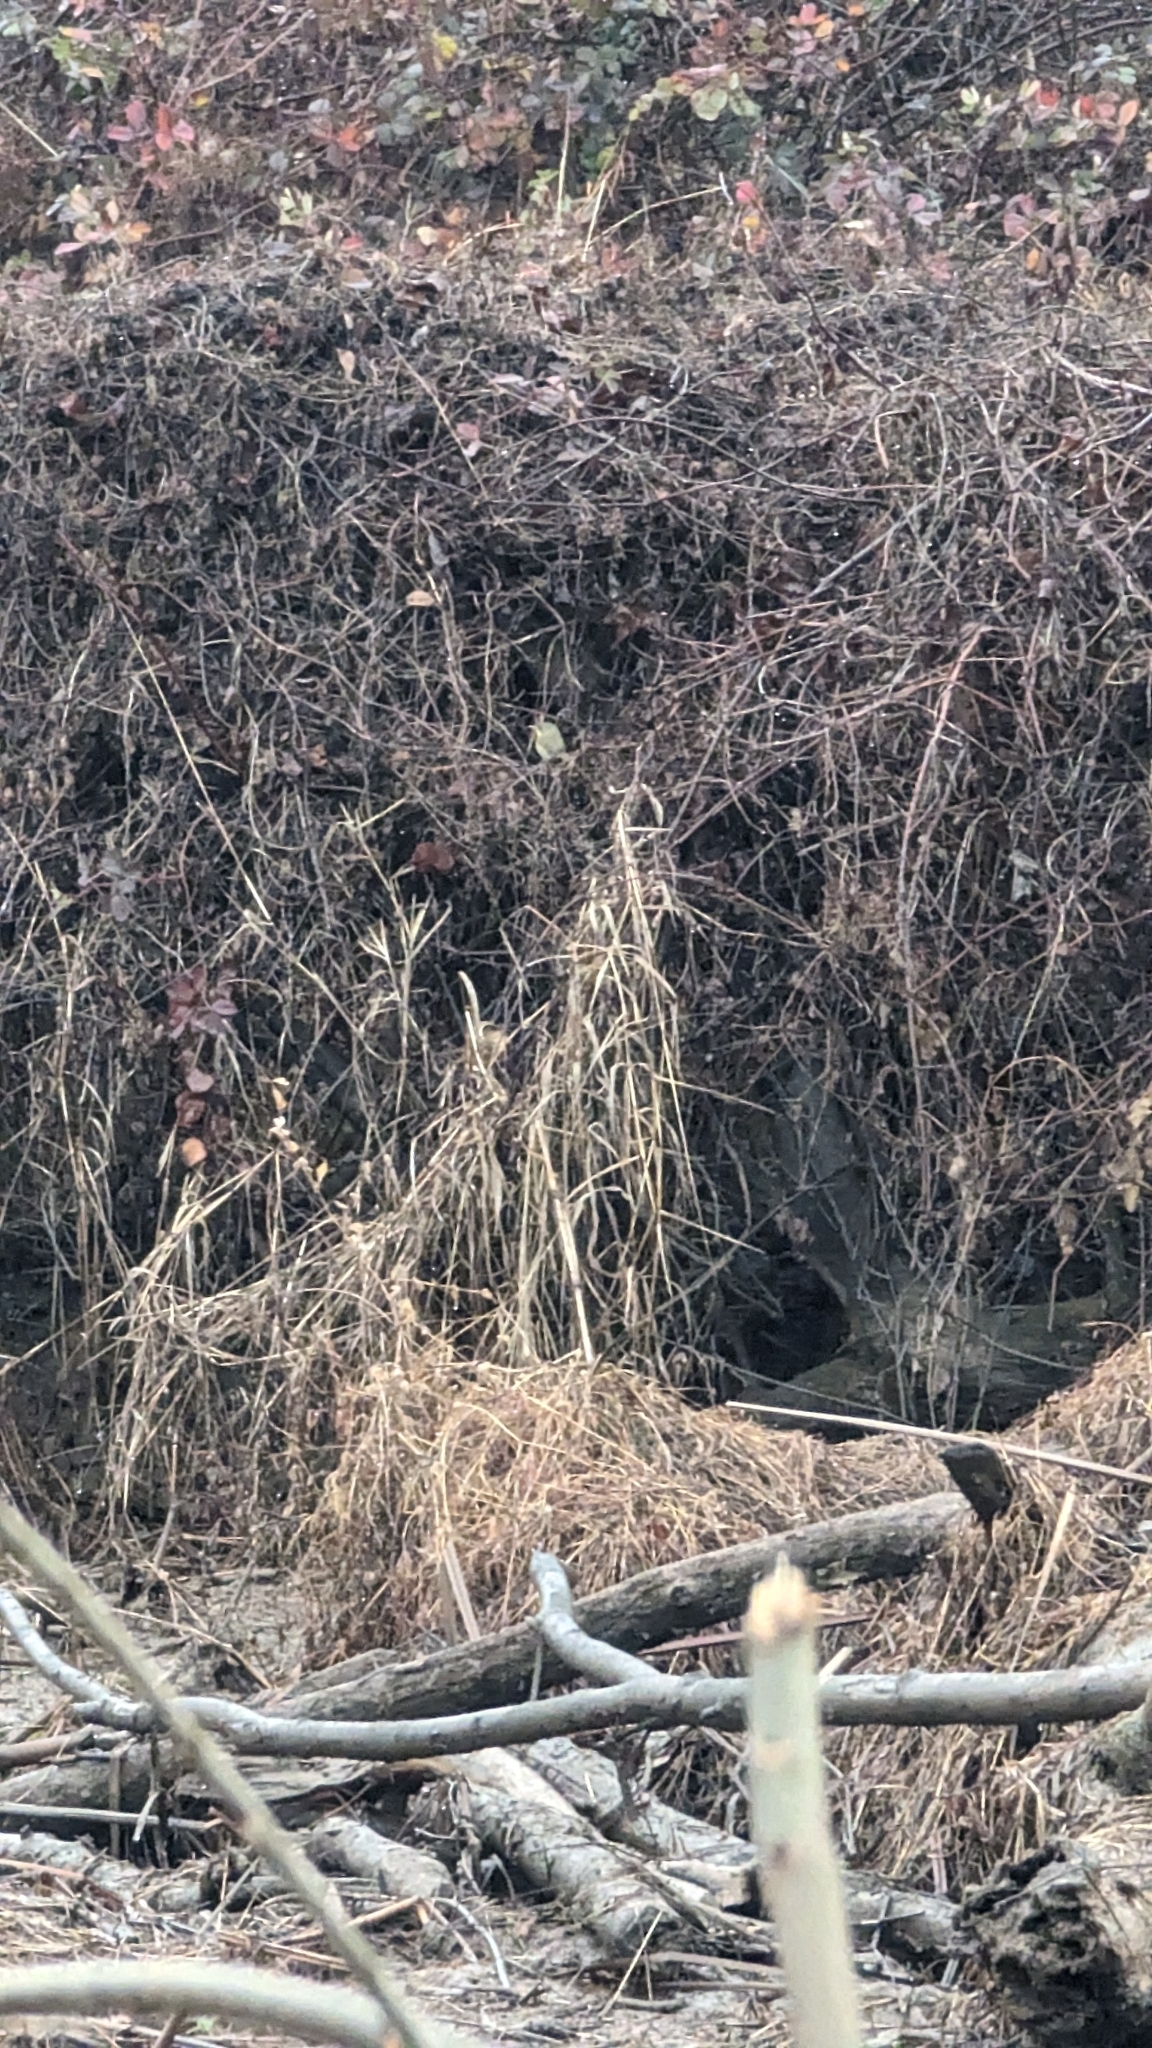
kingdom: Animalia
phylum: Chordata
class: Aves
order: Passeriformes
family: Parulidae
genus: Geothlypis
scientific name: Geothlypis trichas
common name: Common yellowthroat
